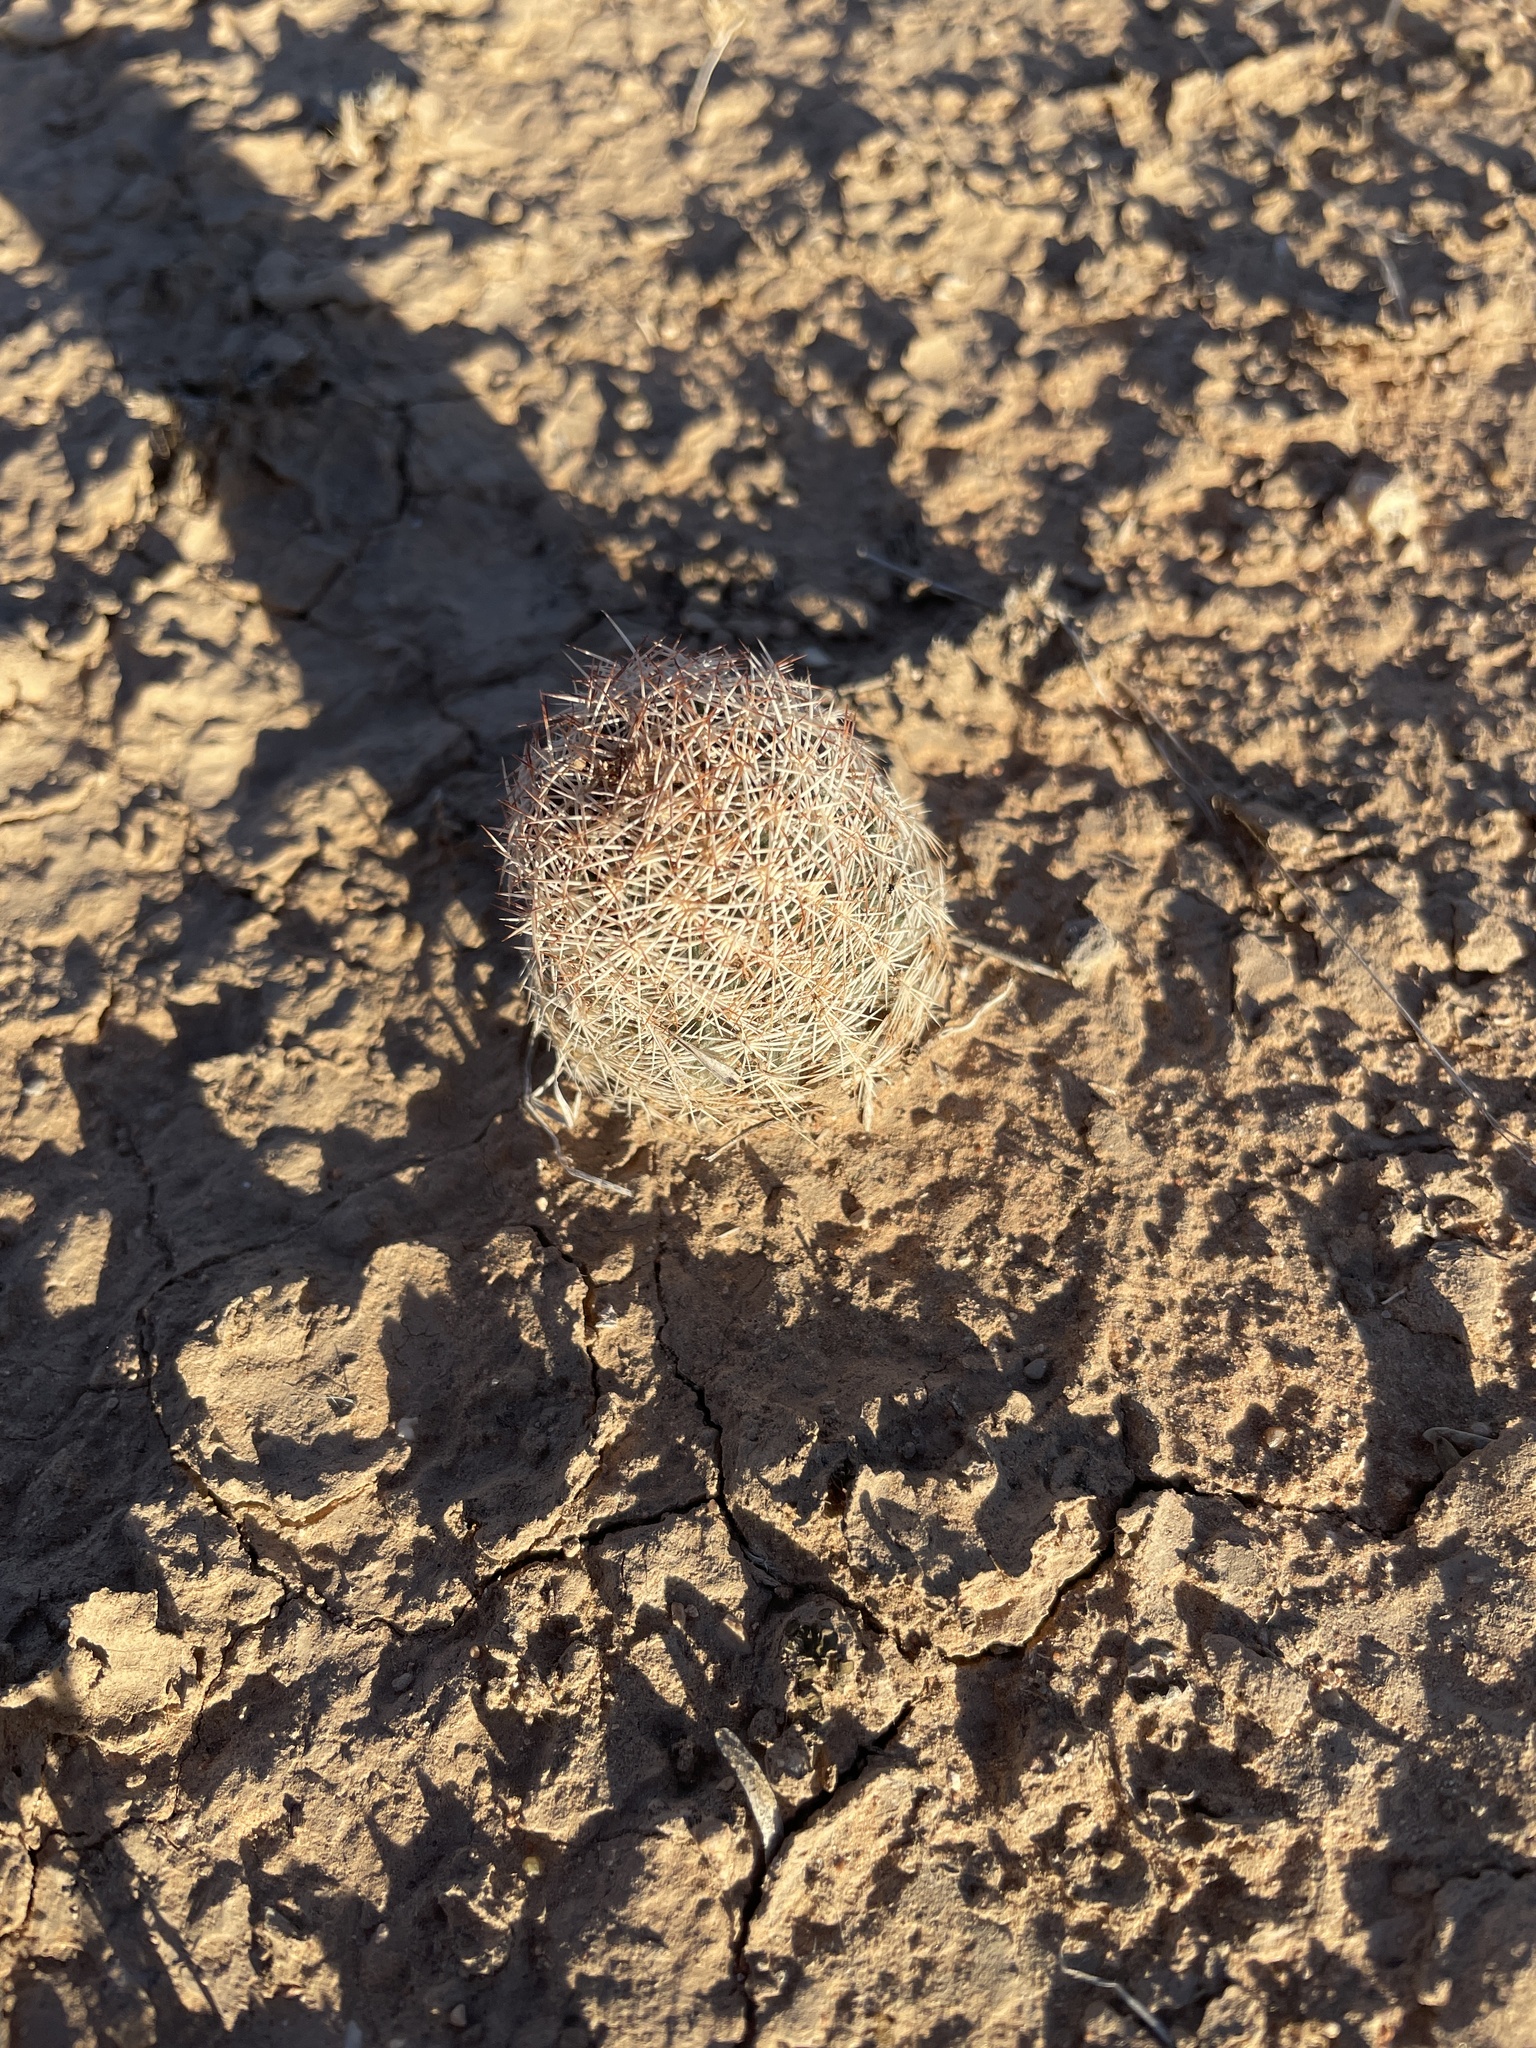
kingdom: Plantae
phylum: Tracheophyta
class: Magnoliopsida
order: Caryophyllales
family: Cactaceae
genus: Sclerocactus
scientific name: Sclerocactus intertextus
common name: White fish-hook cactus
